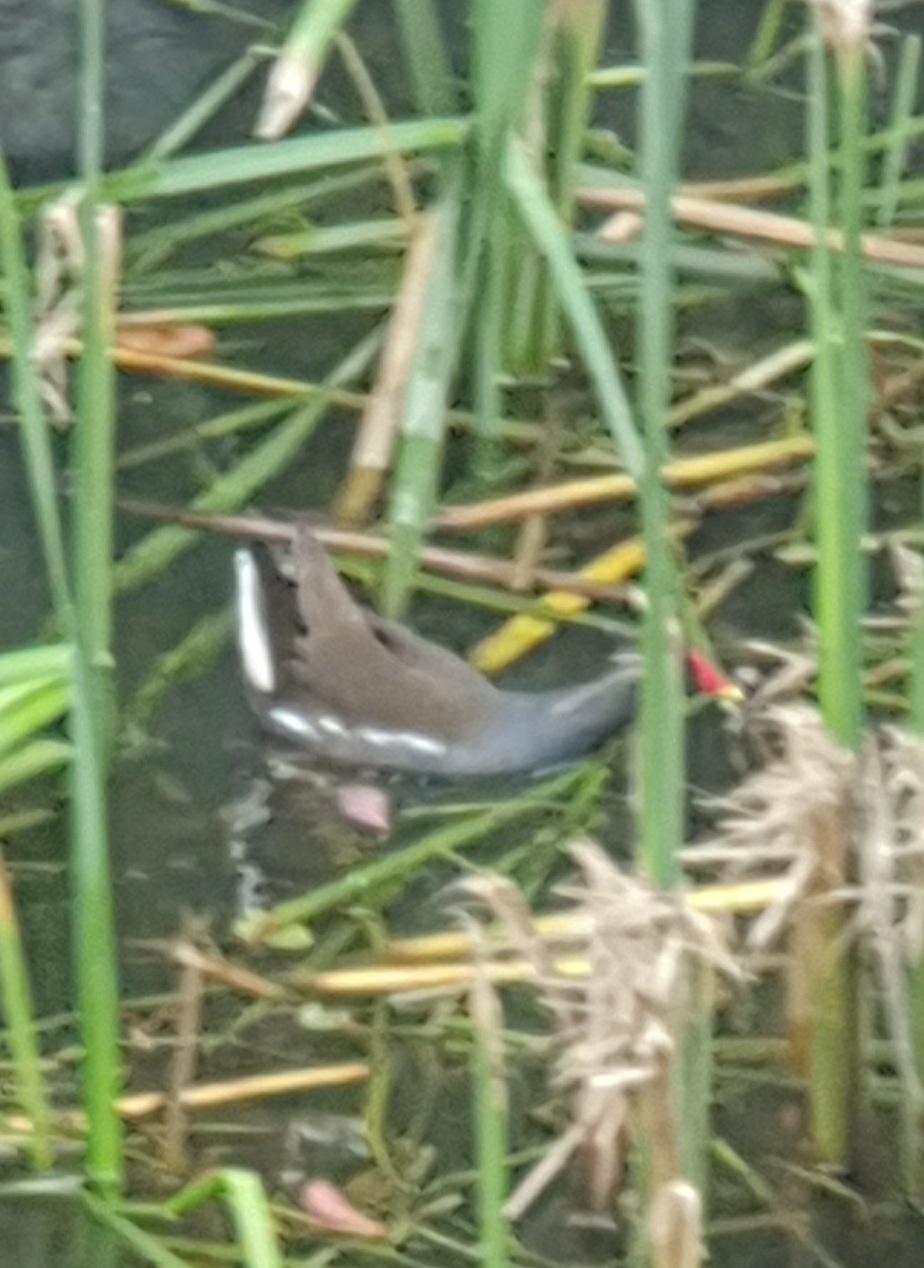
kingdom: Animalia
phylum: Chordata
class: Aves
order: Gruiformes
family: Rallidae
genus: Gallinula
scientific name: Gallinula chloropus
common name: Common moorhen
